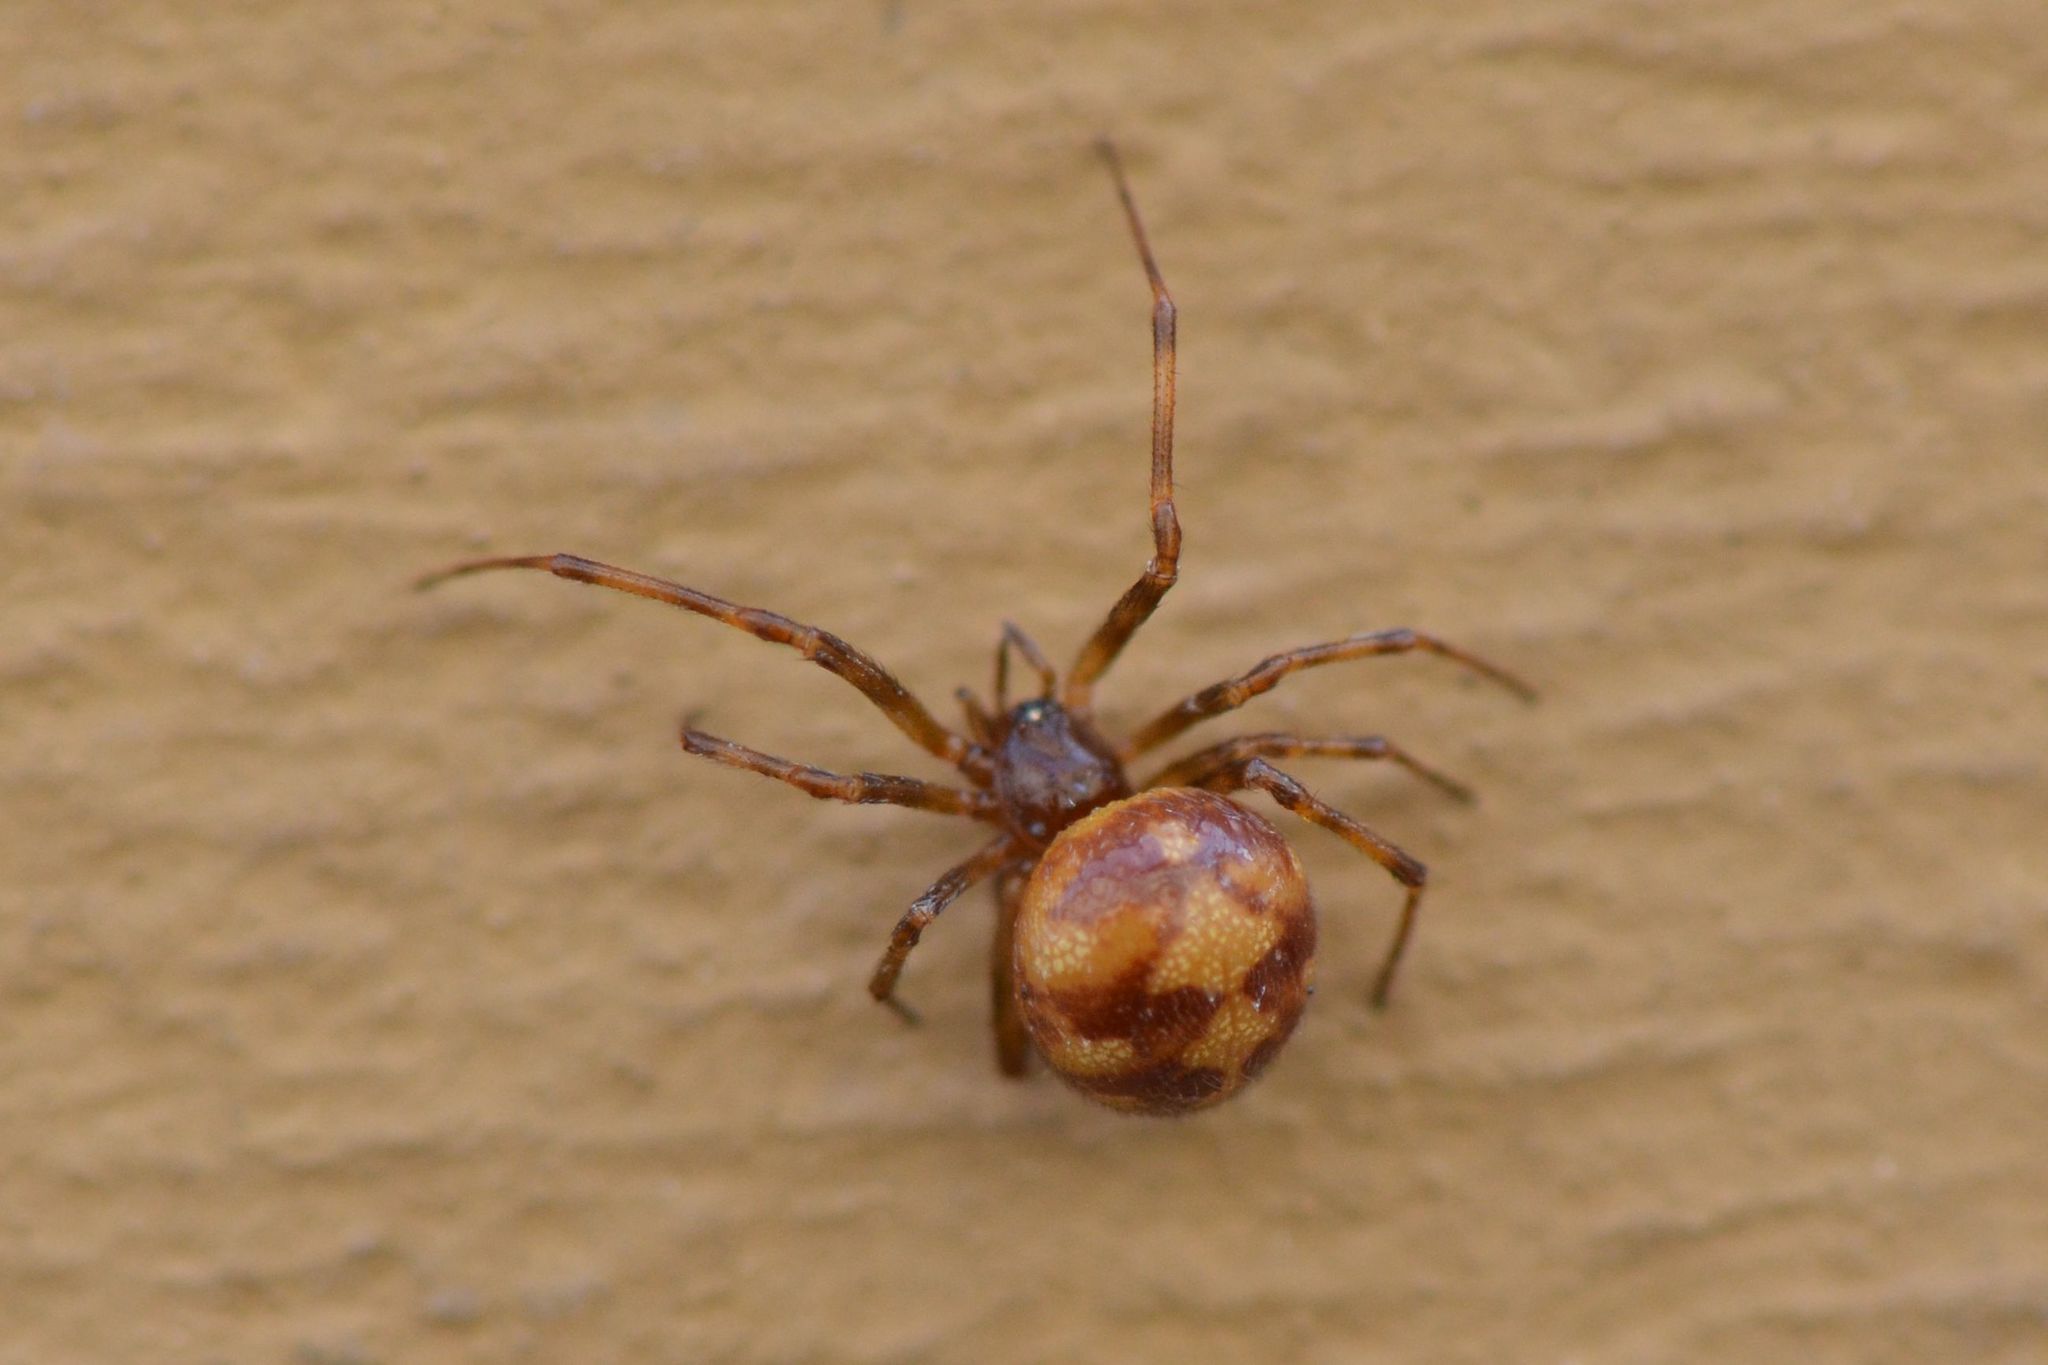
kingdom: Animalia
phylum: Arthropoda
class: Arachnida
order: Araneae
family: Theridiidae
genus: Steatoda
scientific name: Steatoda triangulosa
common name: Triangulate bud spider
